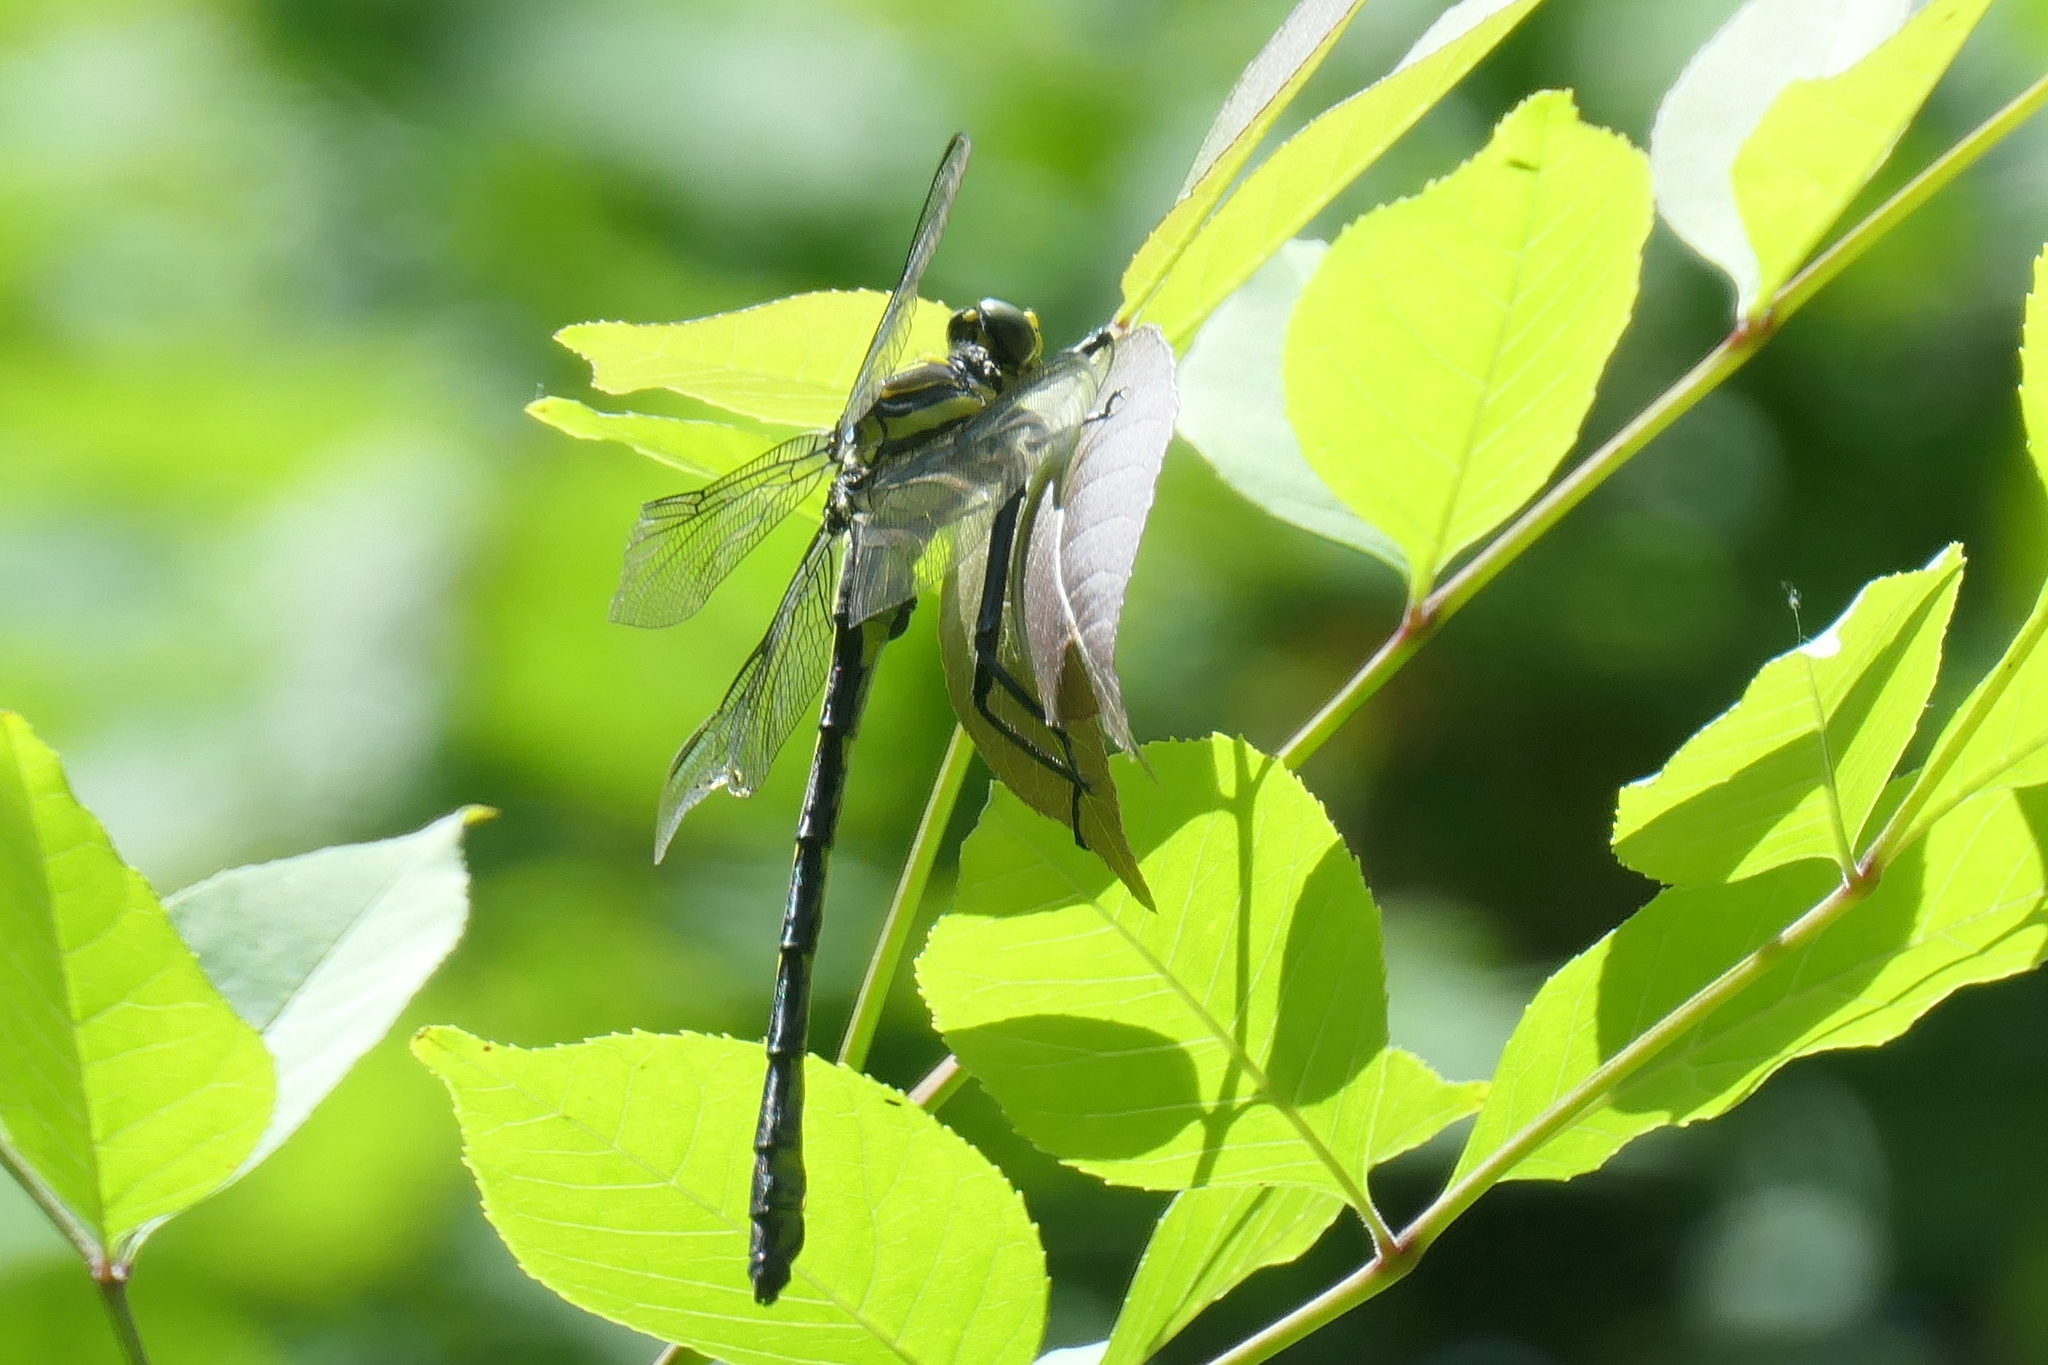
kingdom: Animalia
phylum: Arthropoda
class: Insecta
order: Odonata
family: Gomphidae
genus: Hagenius
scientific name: Hagenius brevistylus
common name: Dragonhunter
